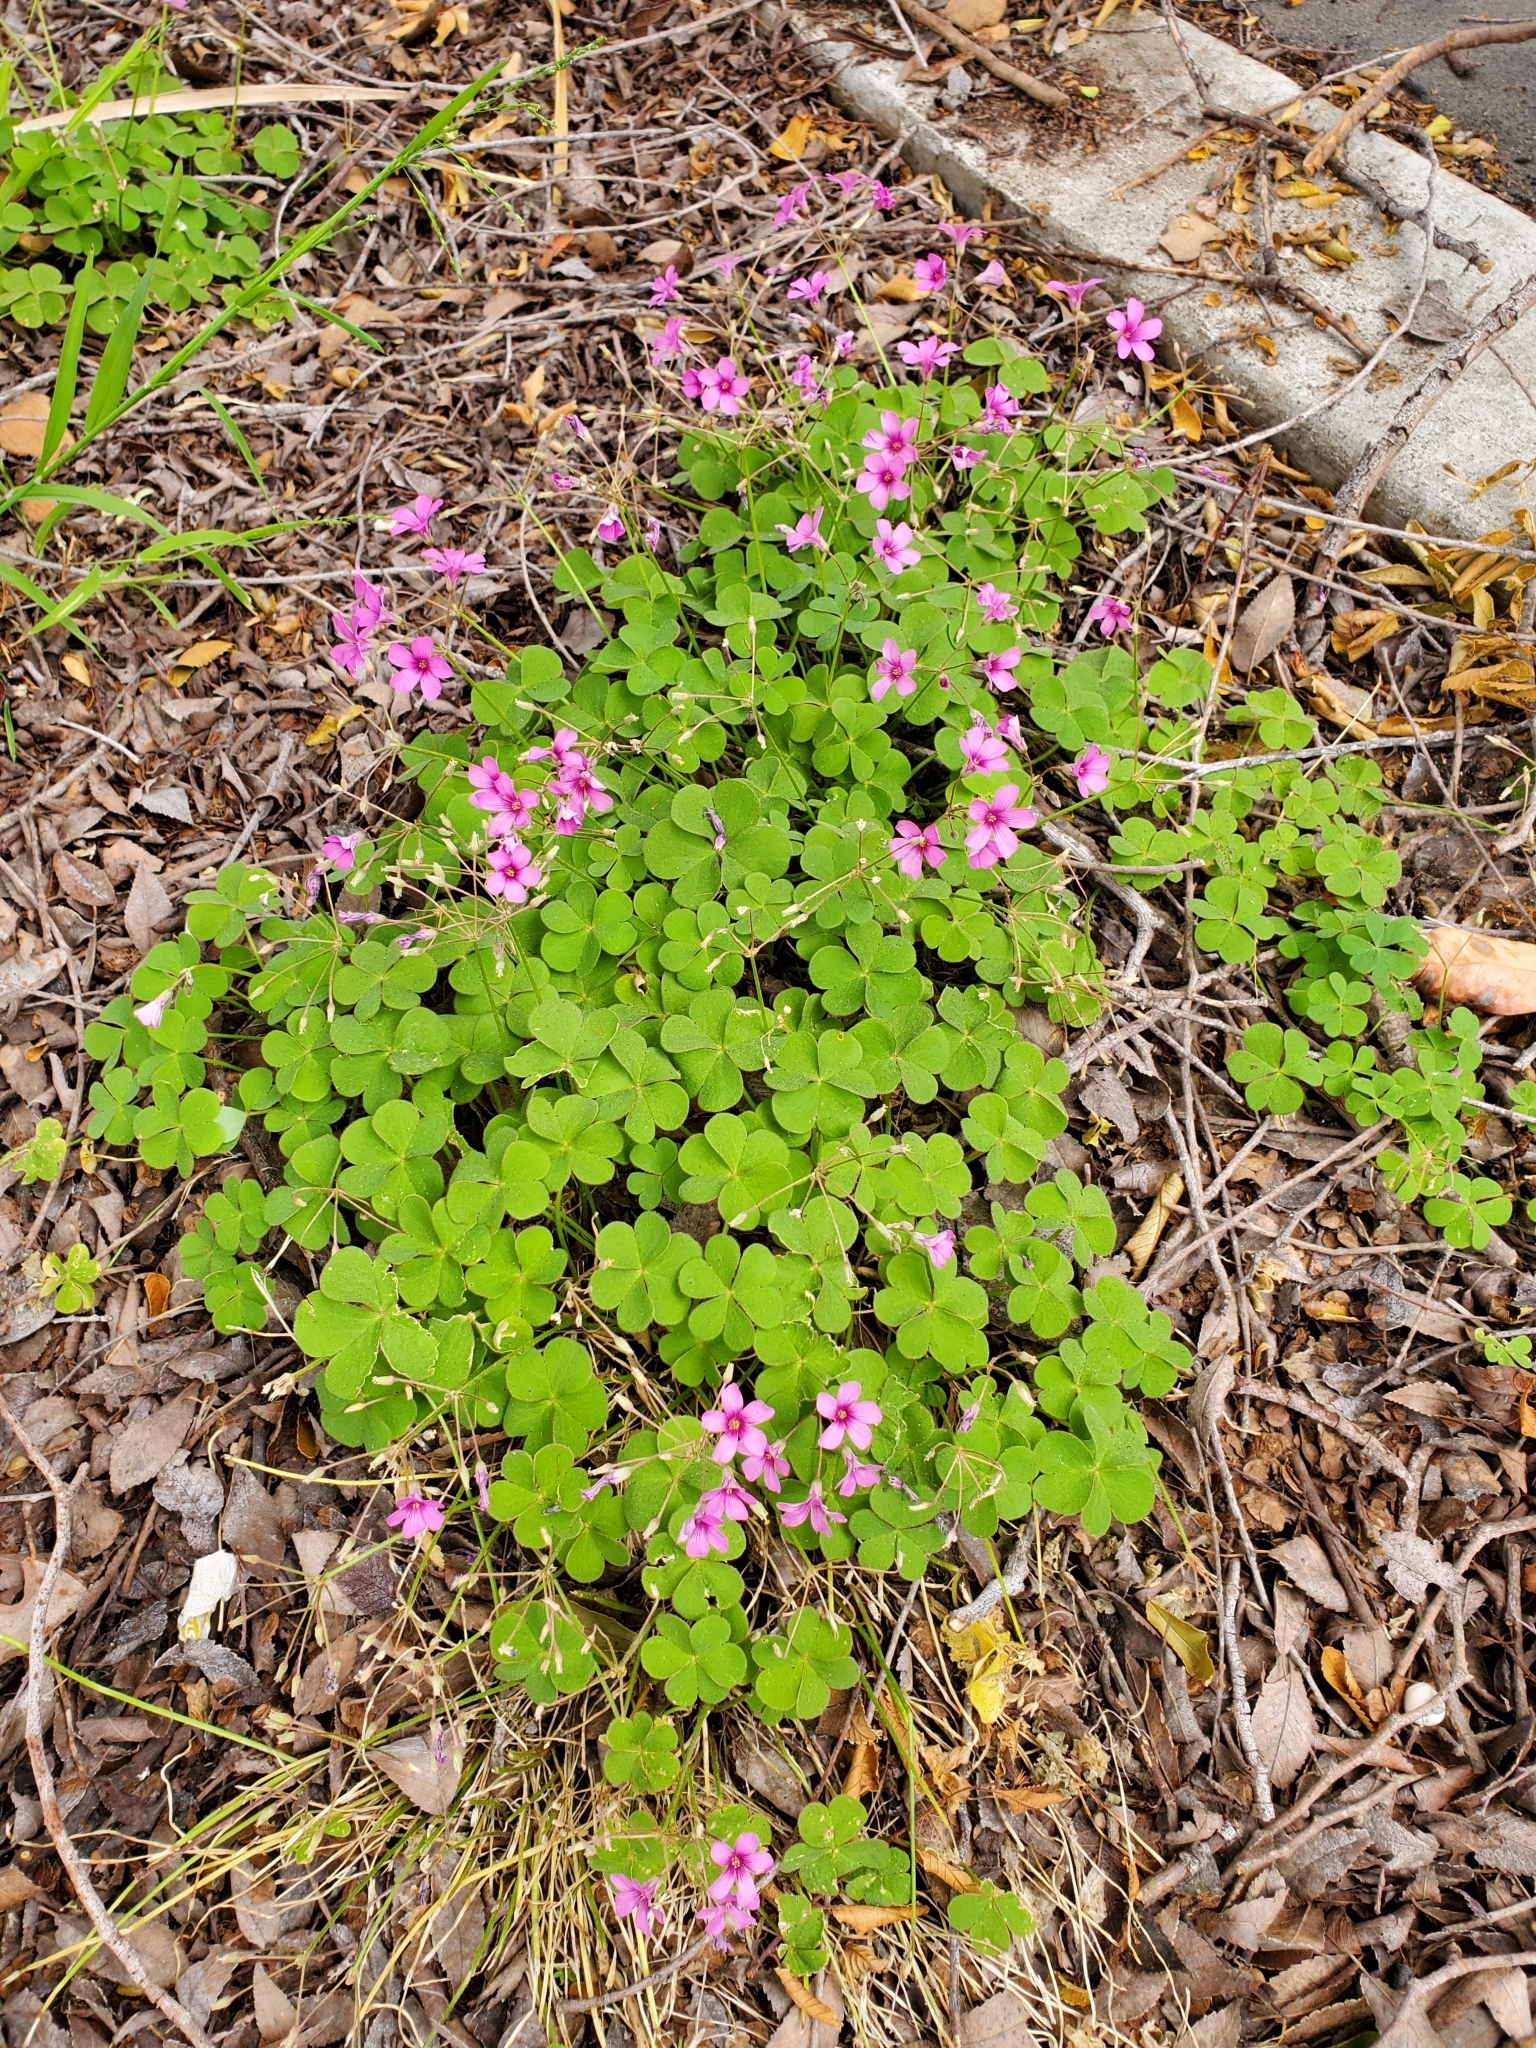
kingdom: Plantae
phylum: Tracheophyta
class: Magnoliopsida
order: Oxalidales
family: Oxalidaceae
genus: Oxalis
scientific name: Oxalis articulata
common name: Pink-sorrel
